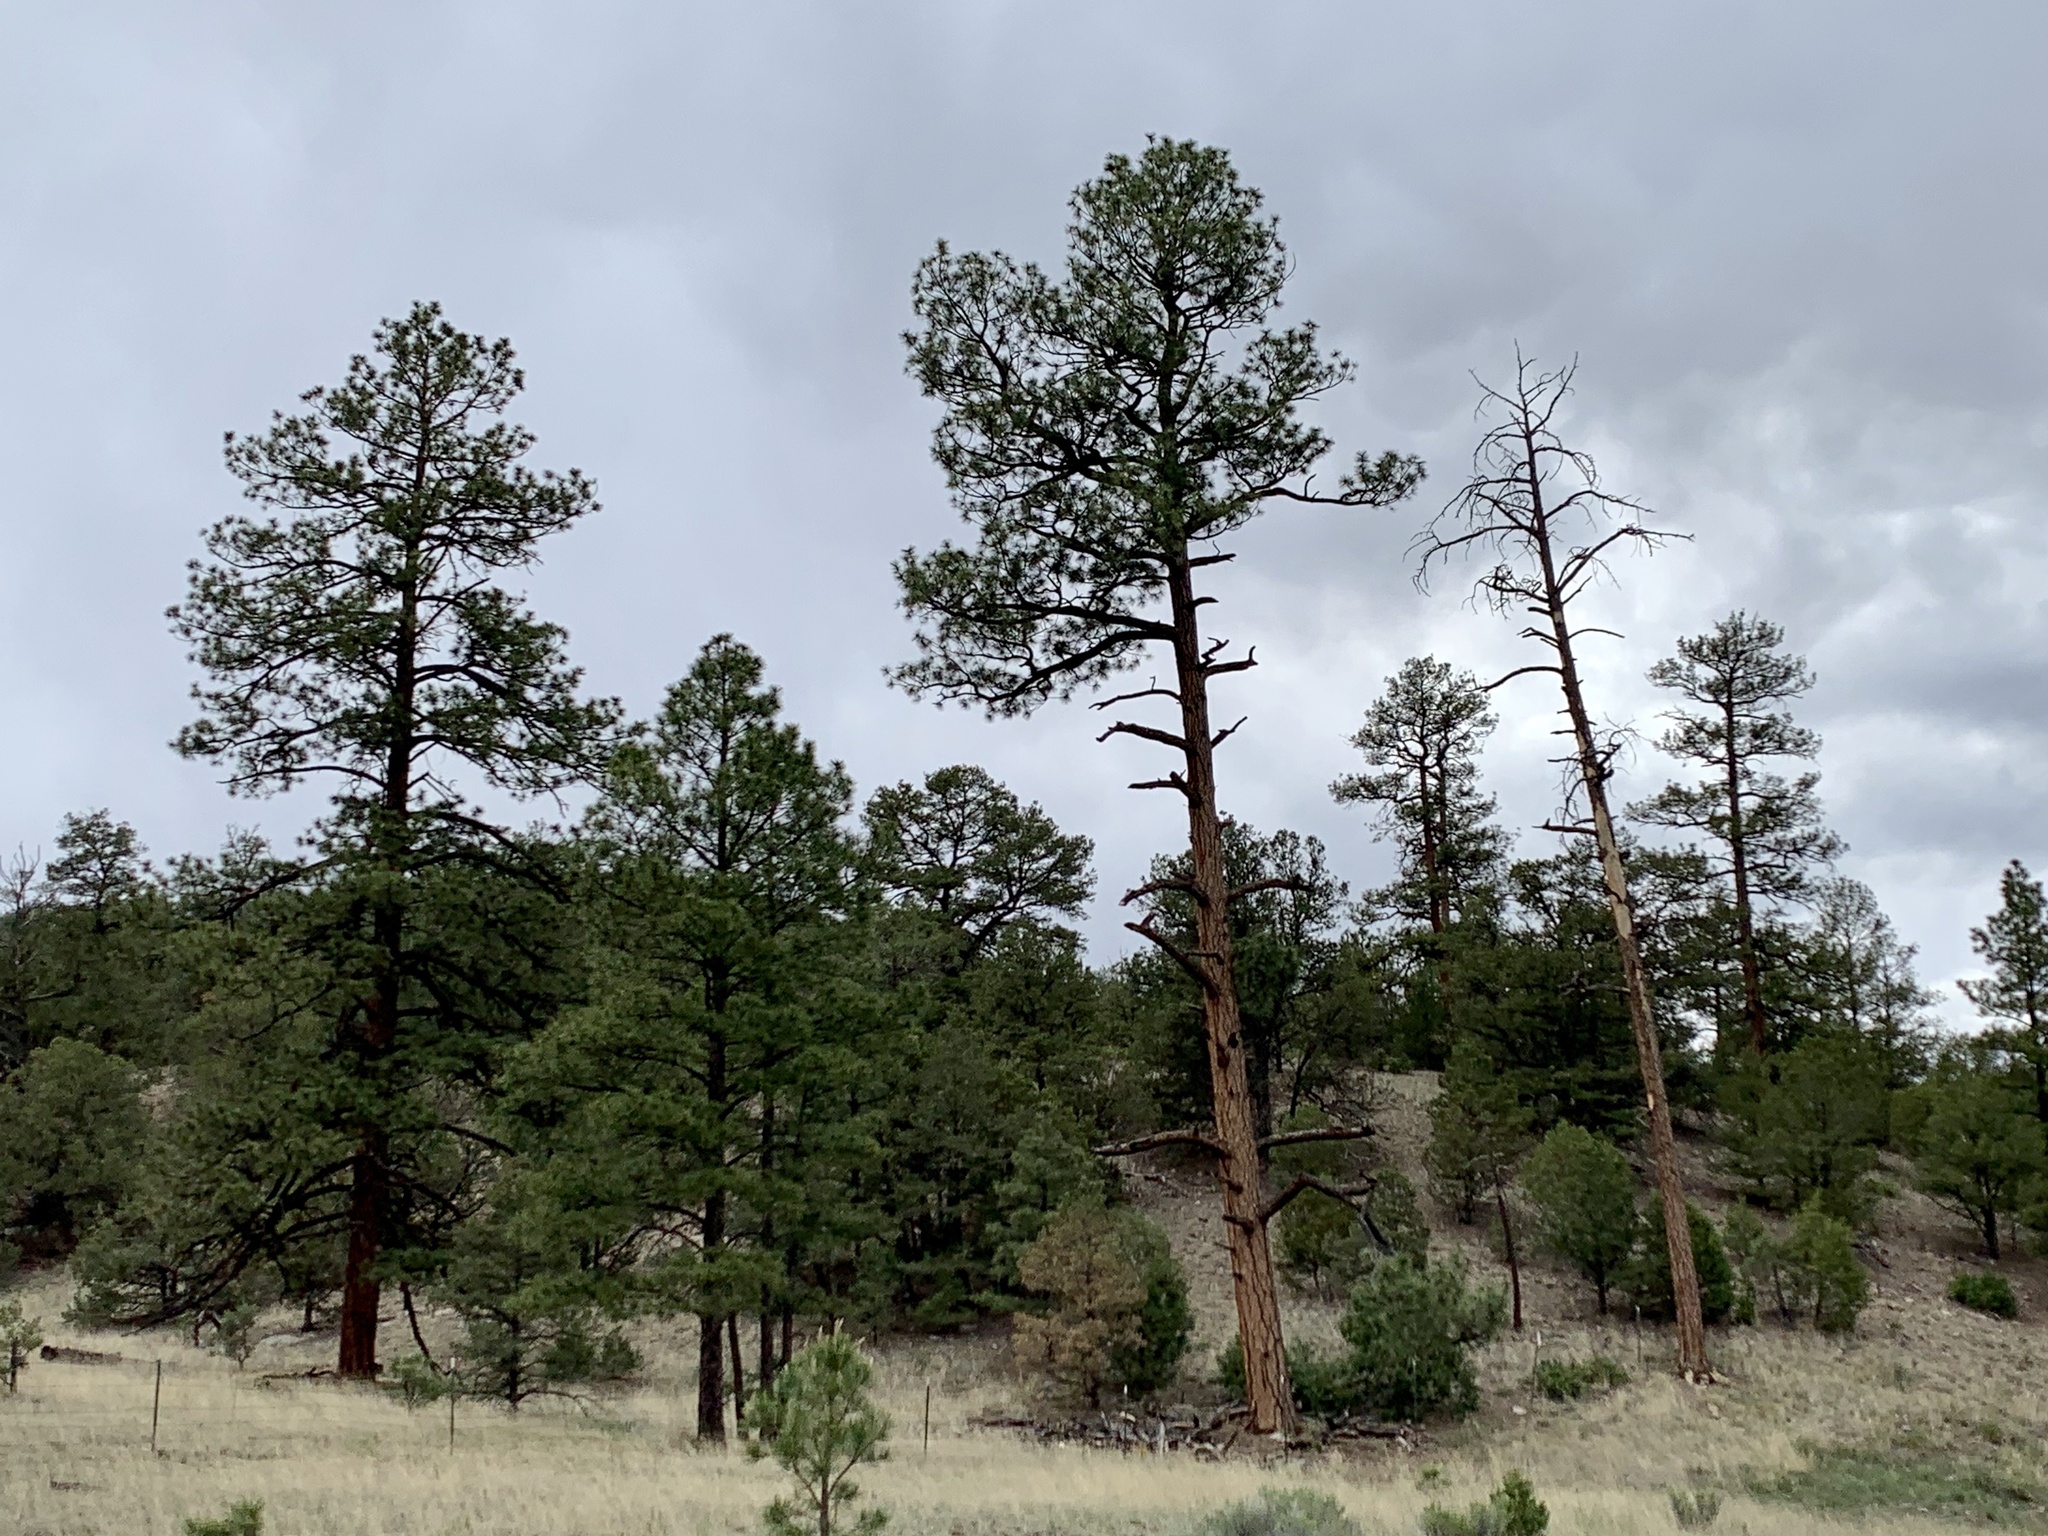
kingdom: Plantae
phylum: Tracheophyta
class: Pinopsida
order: Pinales
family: Pinaceae
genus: Pinus
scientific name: Pinus ponderosa
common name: Western yellow-pine
